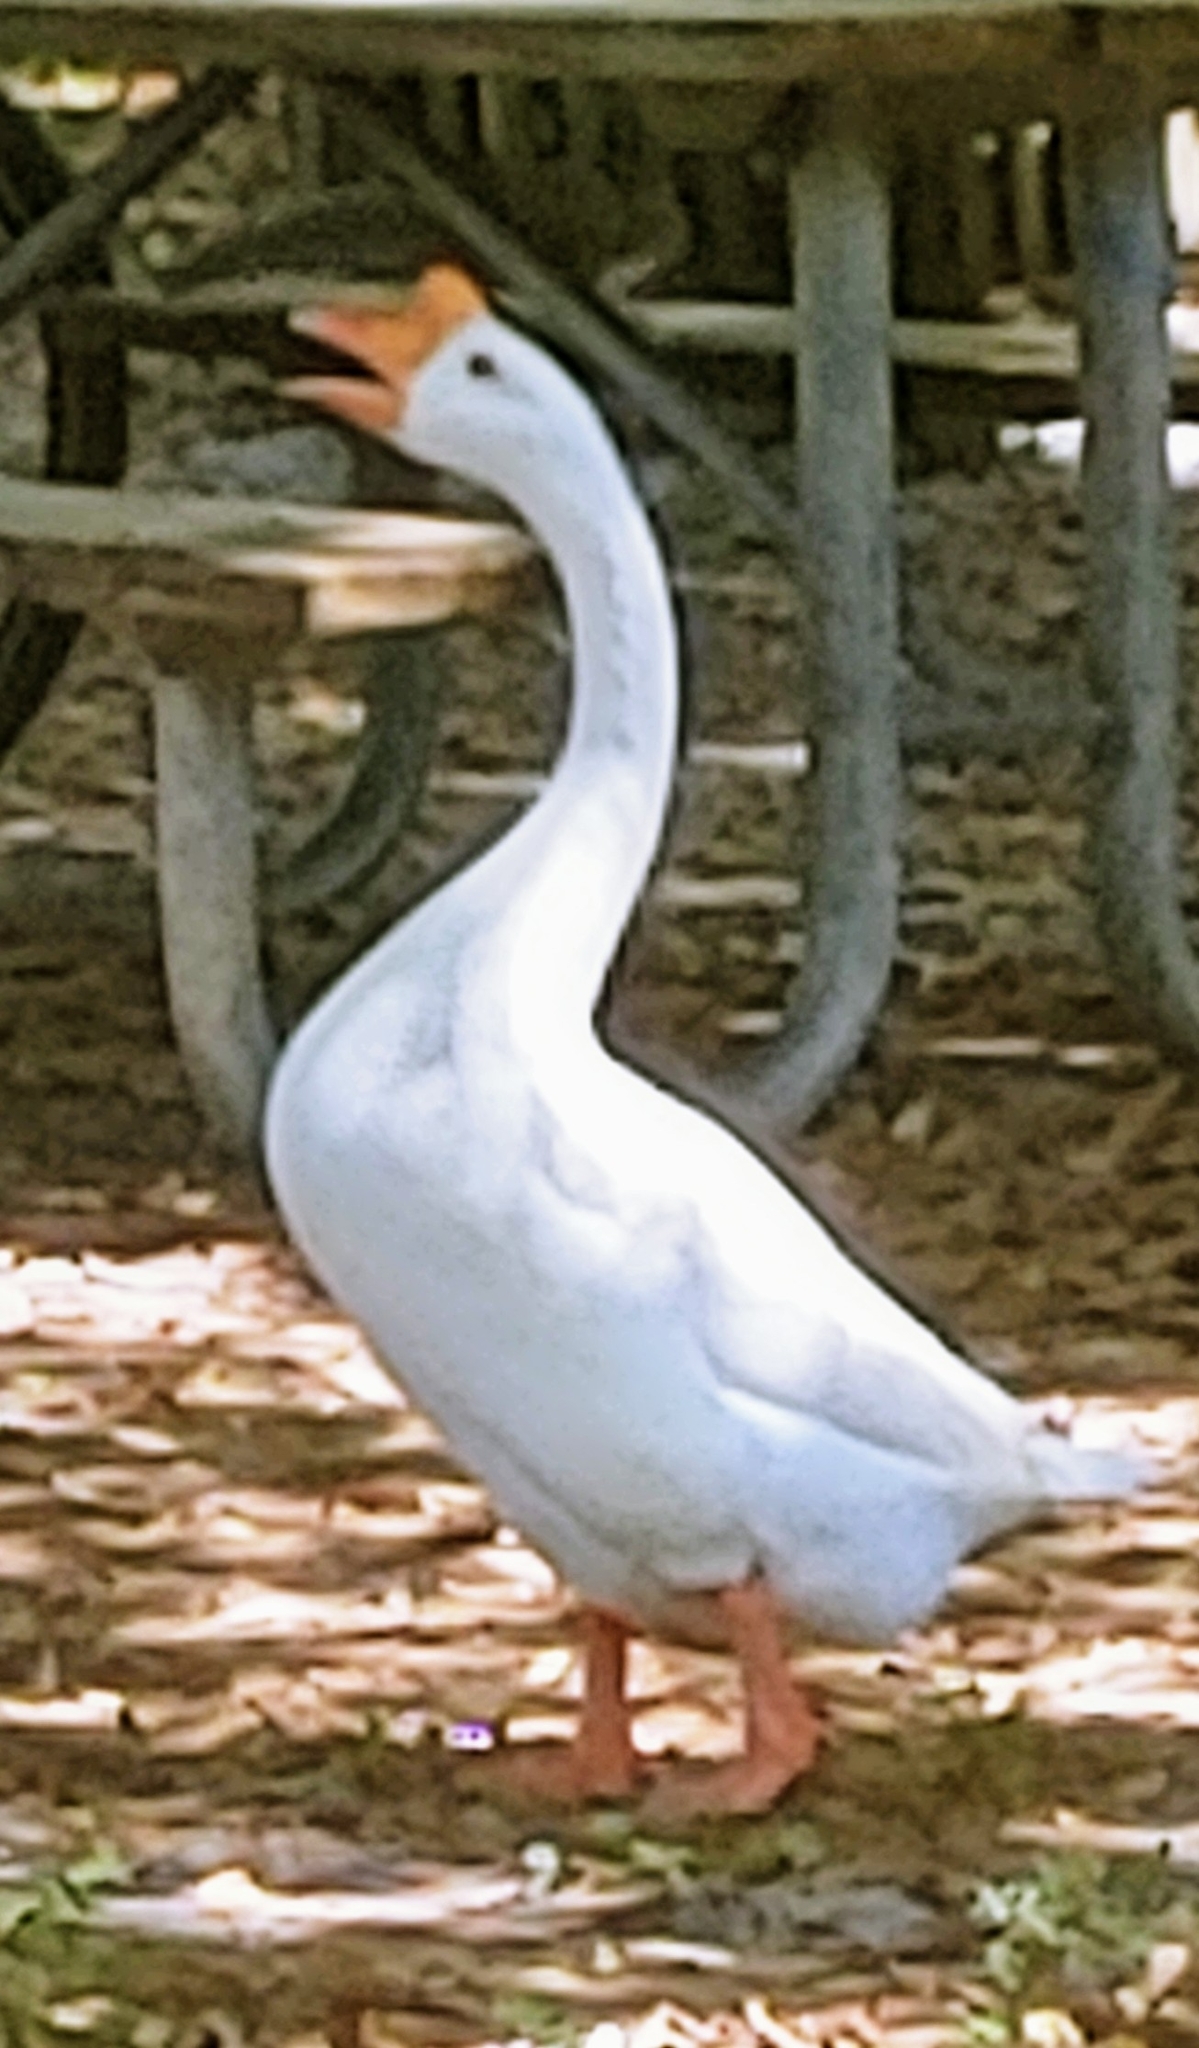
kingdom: Animalia
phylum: Chordata
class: Aves
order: Anseriformes
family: Anatidae
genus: Anser
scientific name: Anser cygnoides
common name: Swan goose
